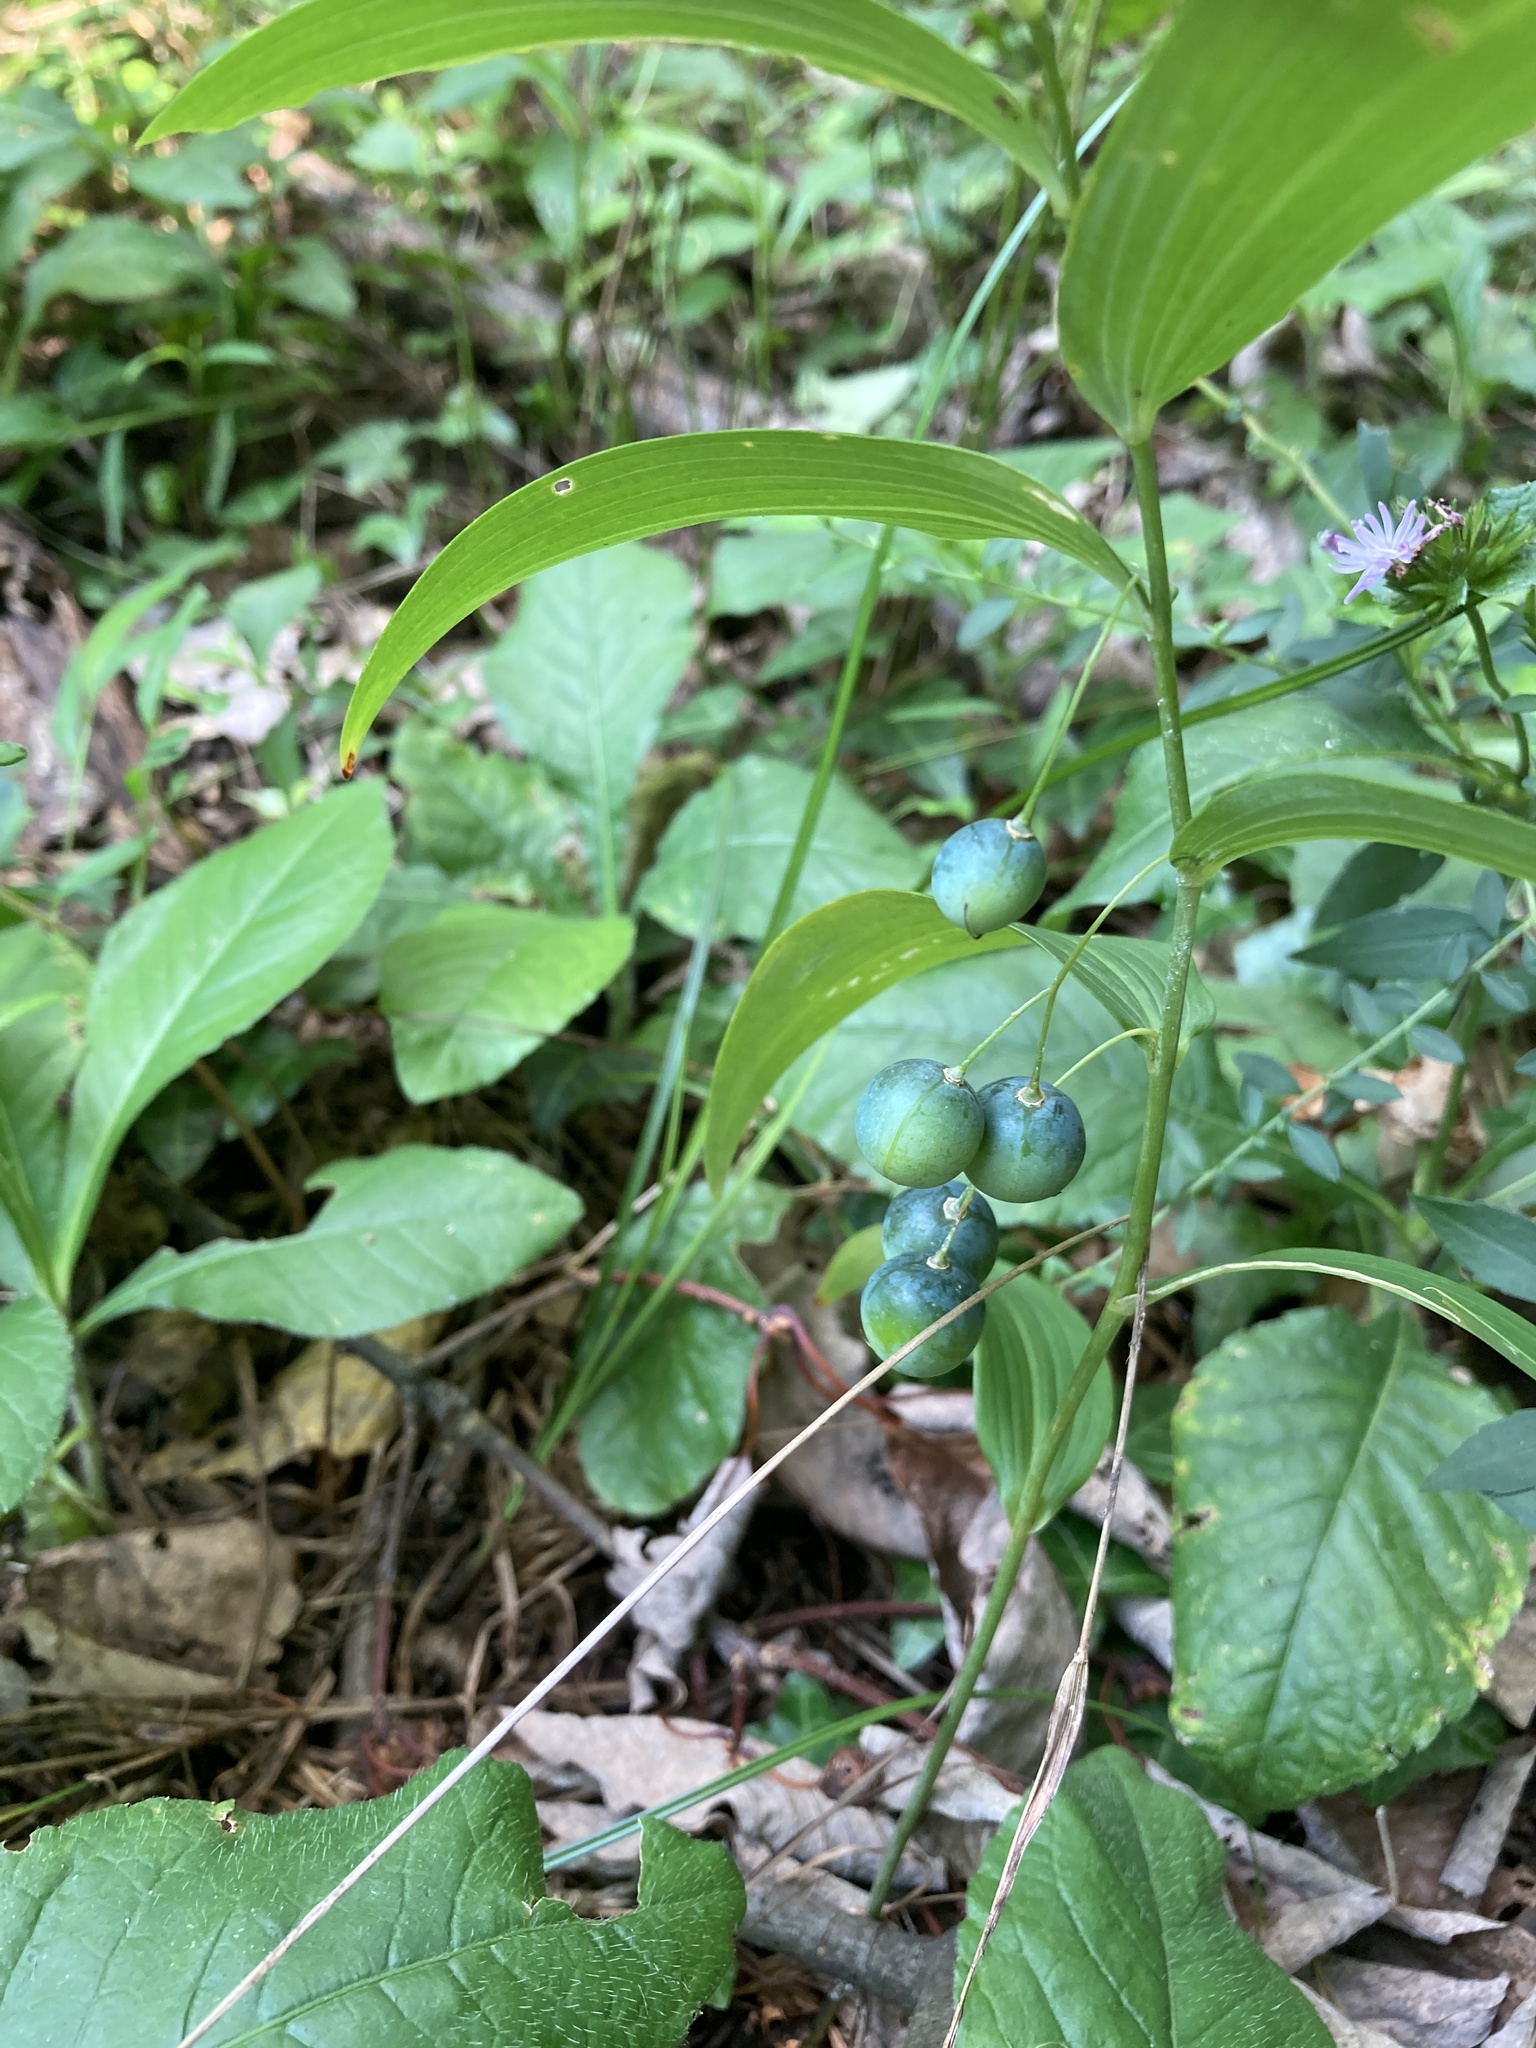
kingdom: Plantae
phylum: Tracheophyta
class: Liliopsida
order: Asparagales
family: Asparagaceae
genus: Polygonatum
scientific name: Polygonatum biflorum
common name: American solomon's-seal
